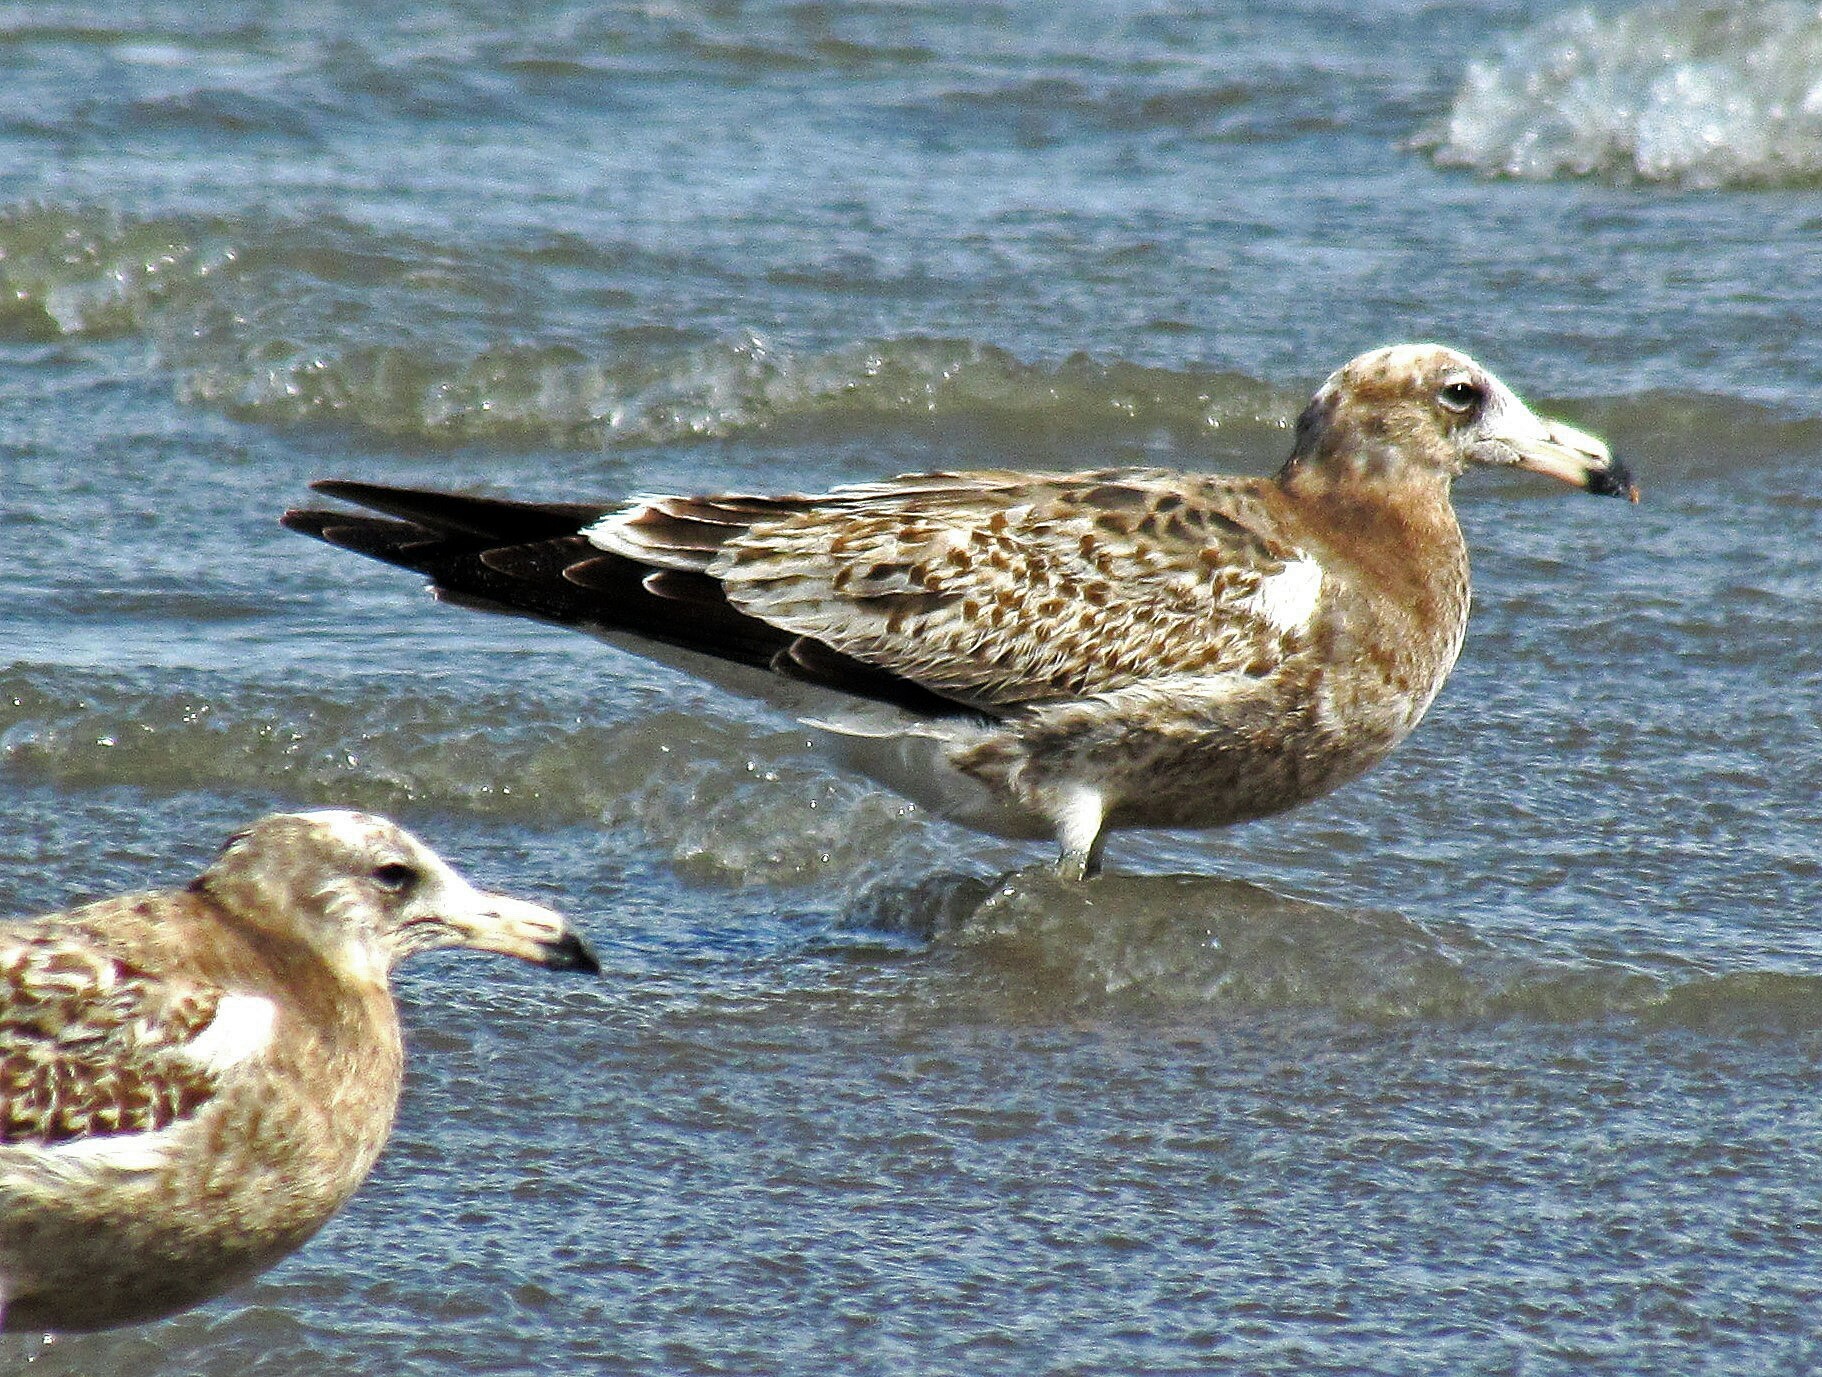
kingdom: Animalia
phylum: Chordata
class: Aves
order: Charadriiformes
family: Laridae
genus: Larus
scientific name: Larus atlanticus
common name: Olrog's gull
